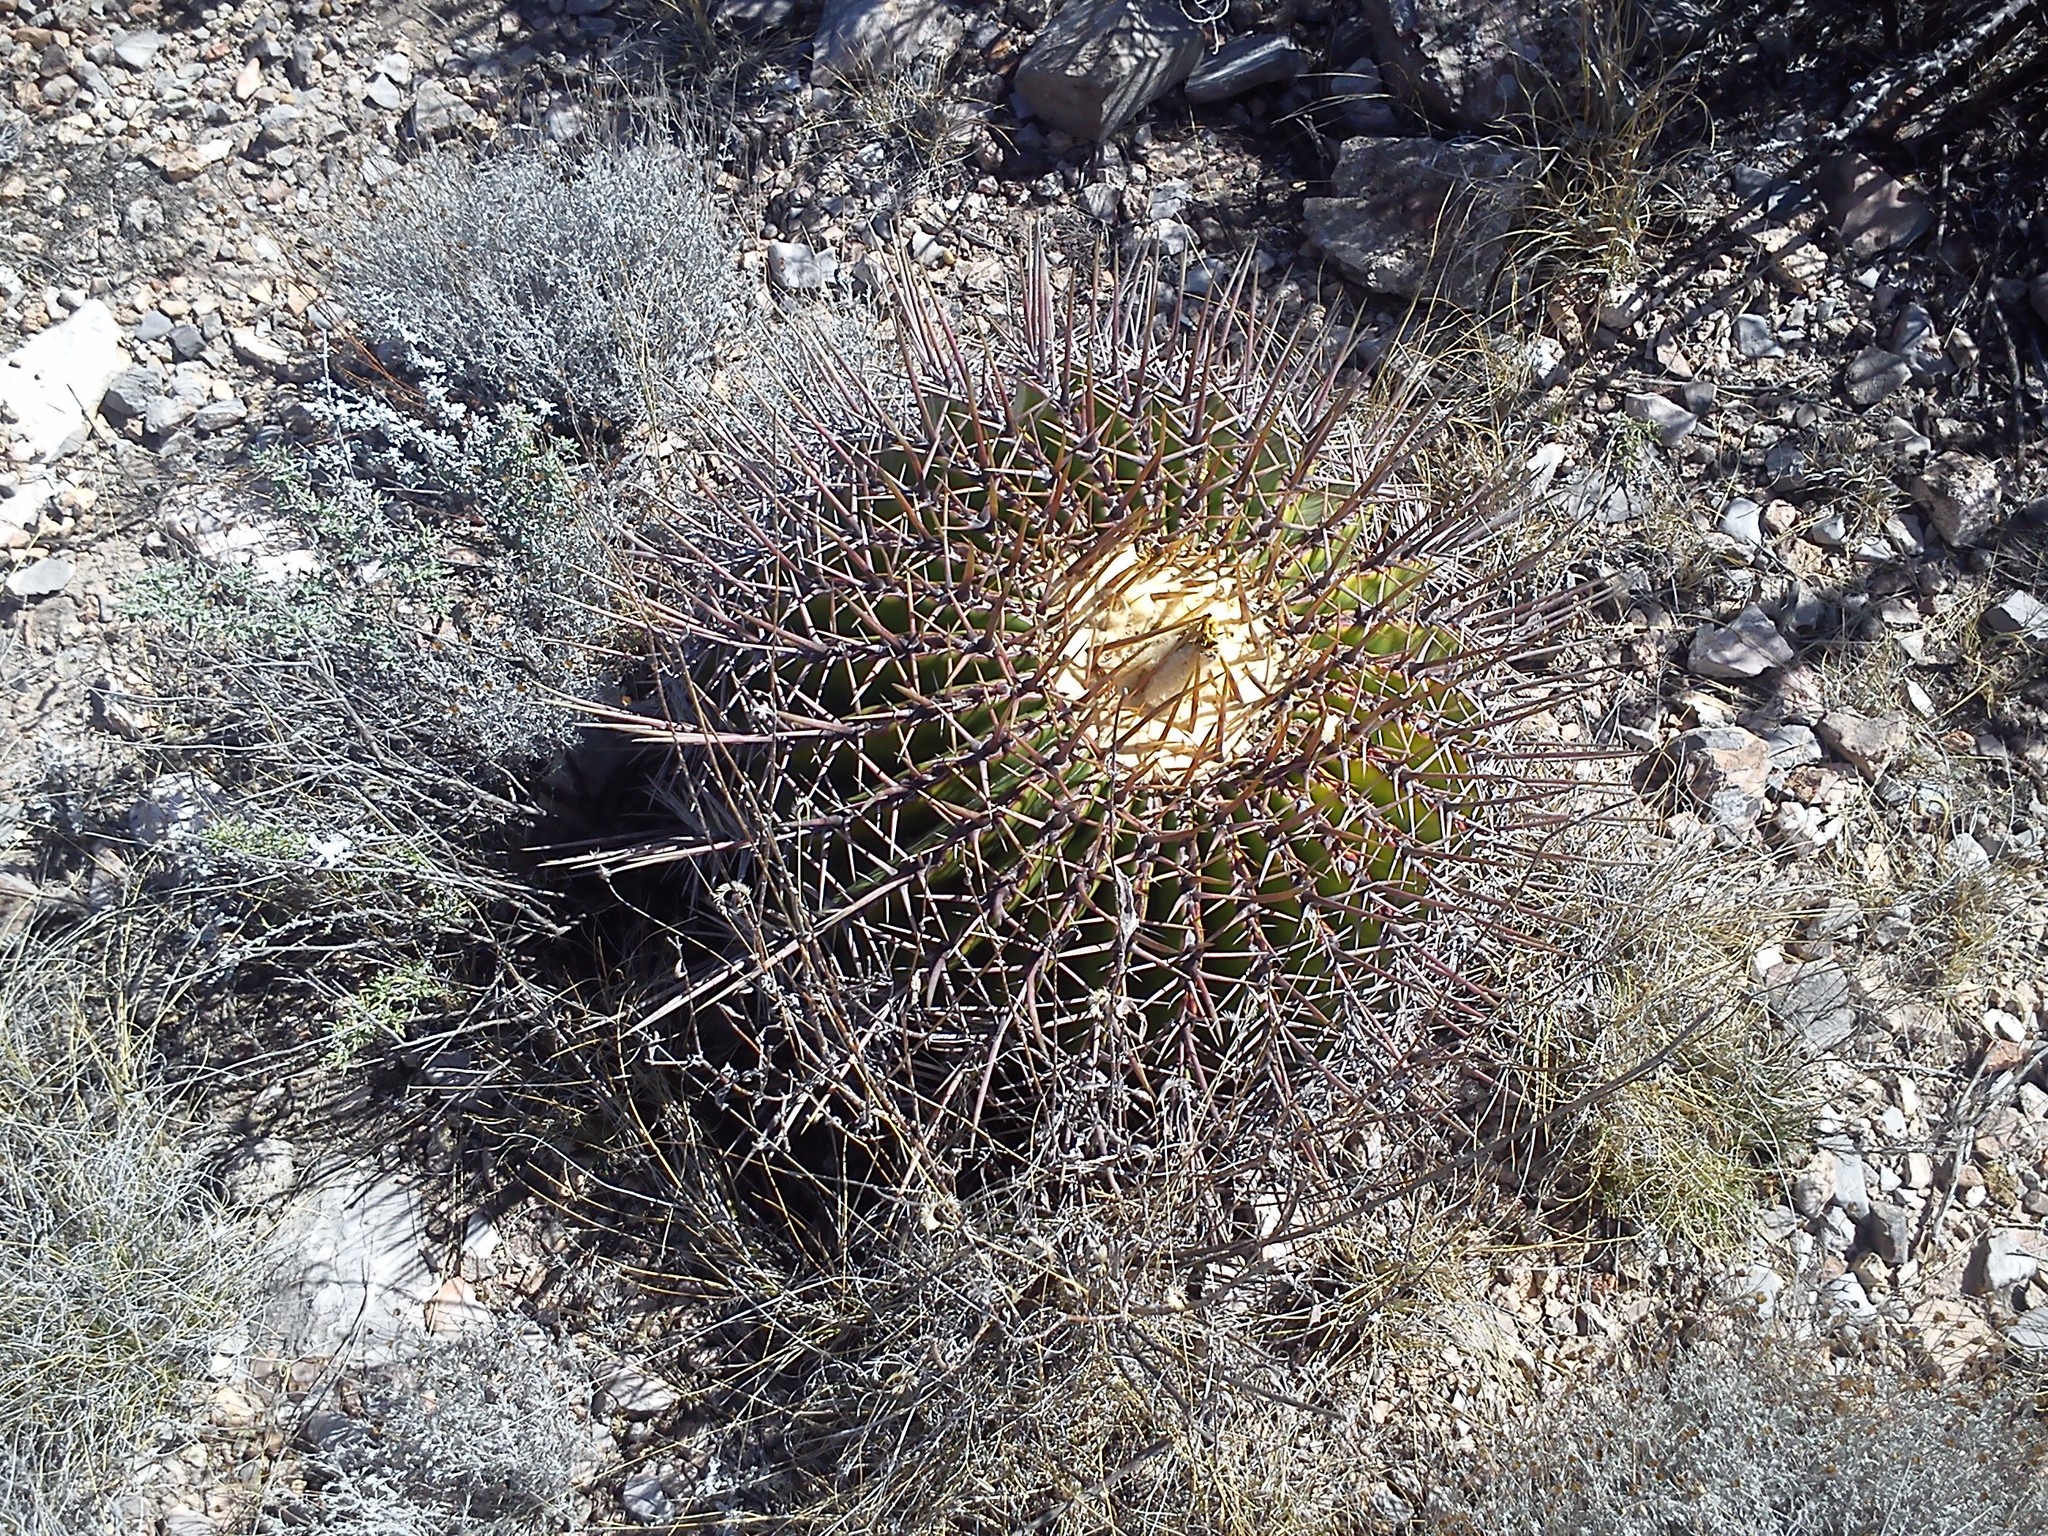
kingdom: Plantae
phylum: Tracheophyta
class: Magnoliopsida
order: Caryophyllales
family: Cactaceae
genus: Echinocactus
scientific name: Echinocactus platyacanthus
